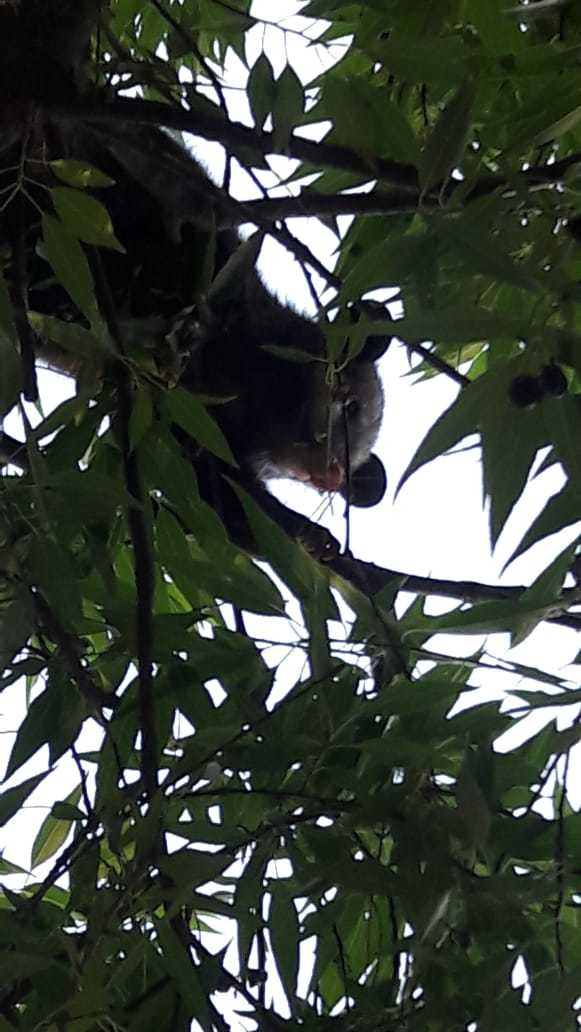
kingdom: Animalia
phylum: Chordata
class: Mammalia
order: Didelphimorphia
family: Didelphidae
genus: Didelphis
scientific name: Didelphis virginiana
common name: Virginia opossum
